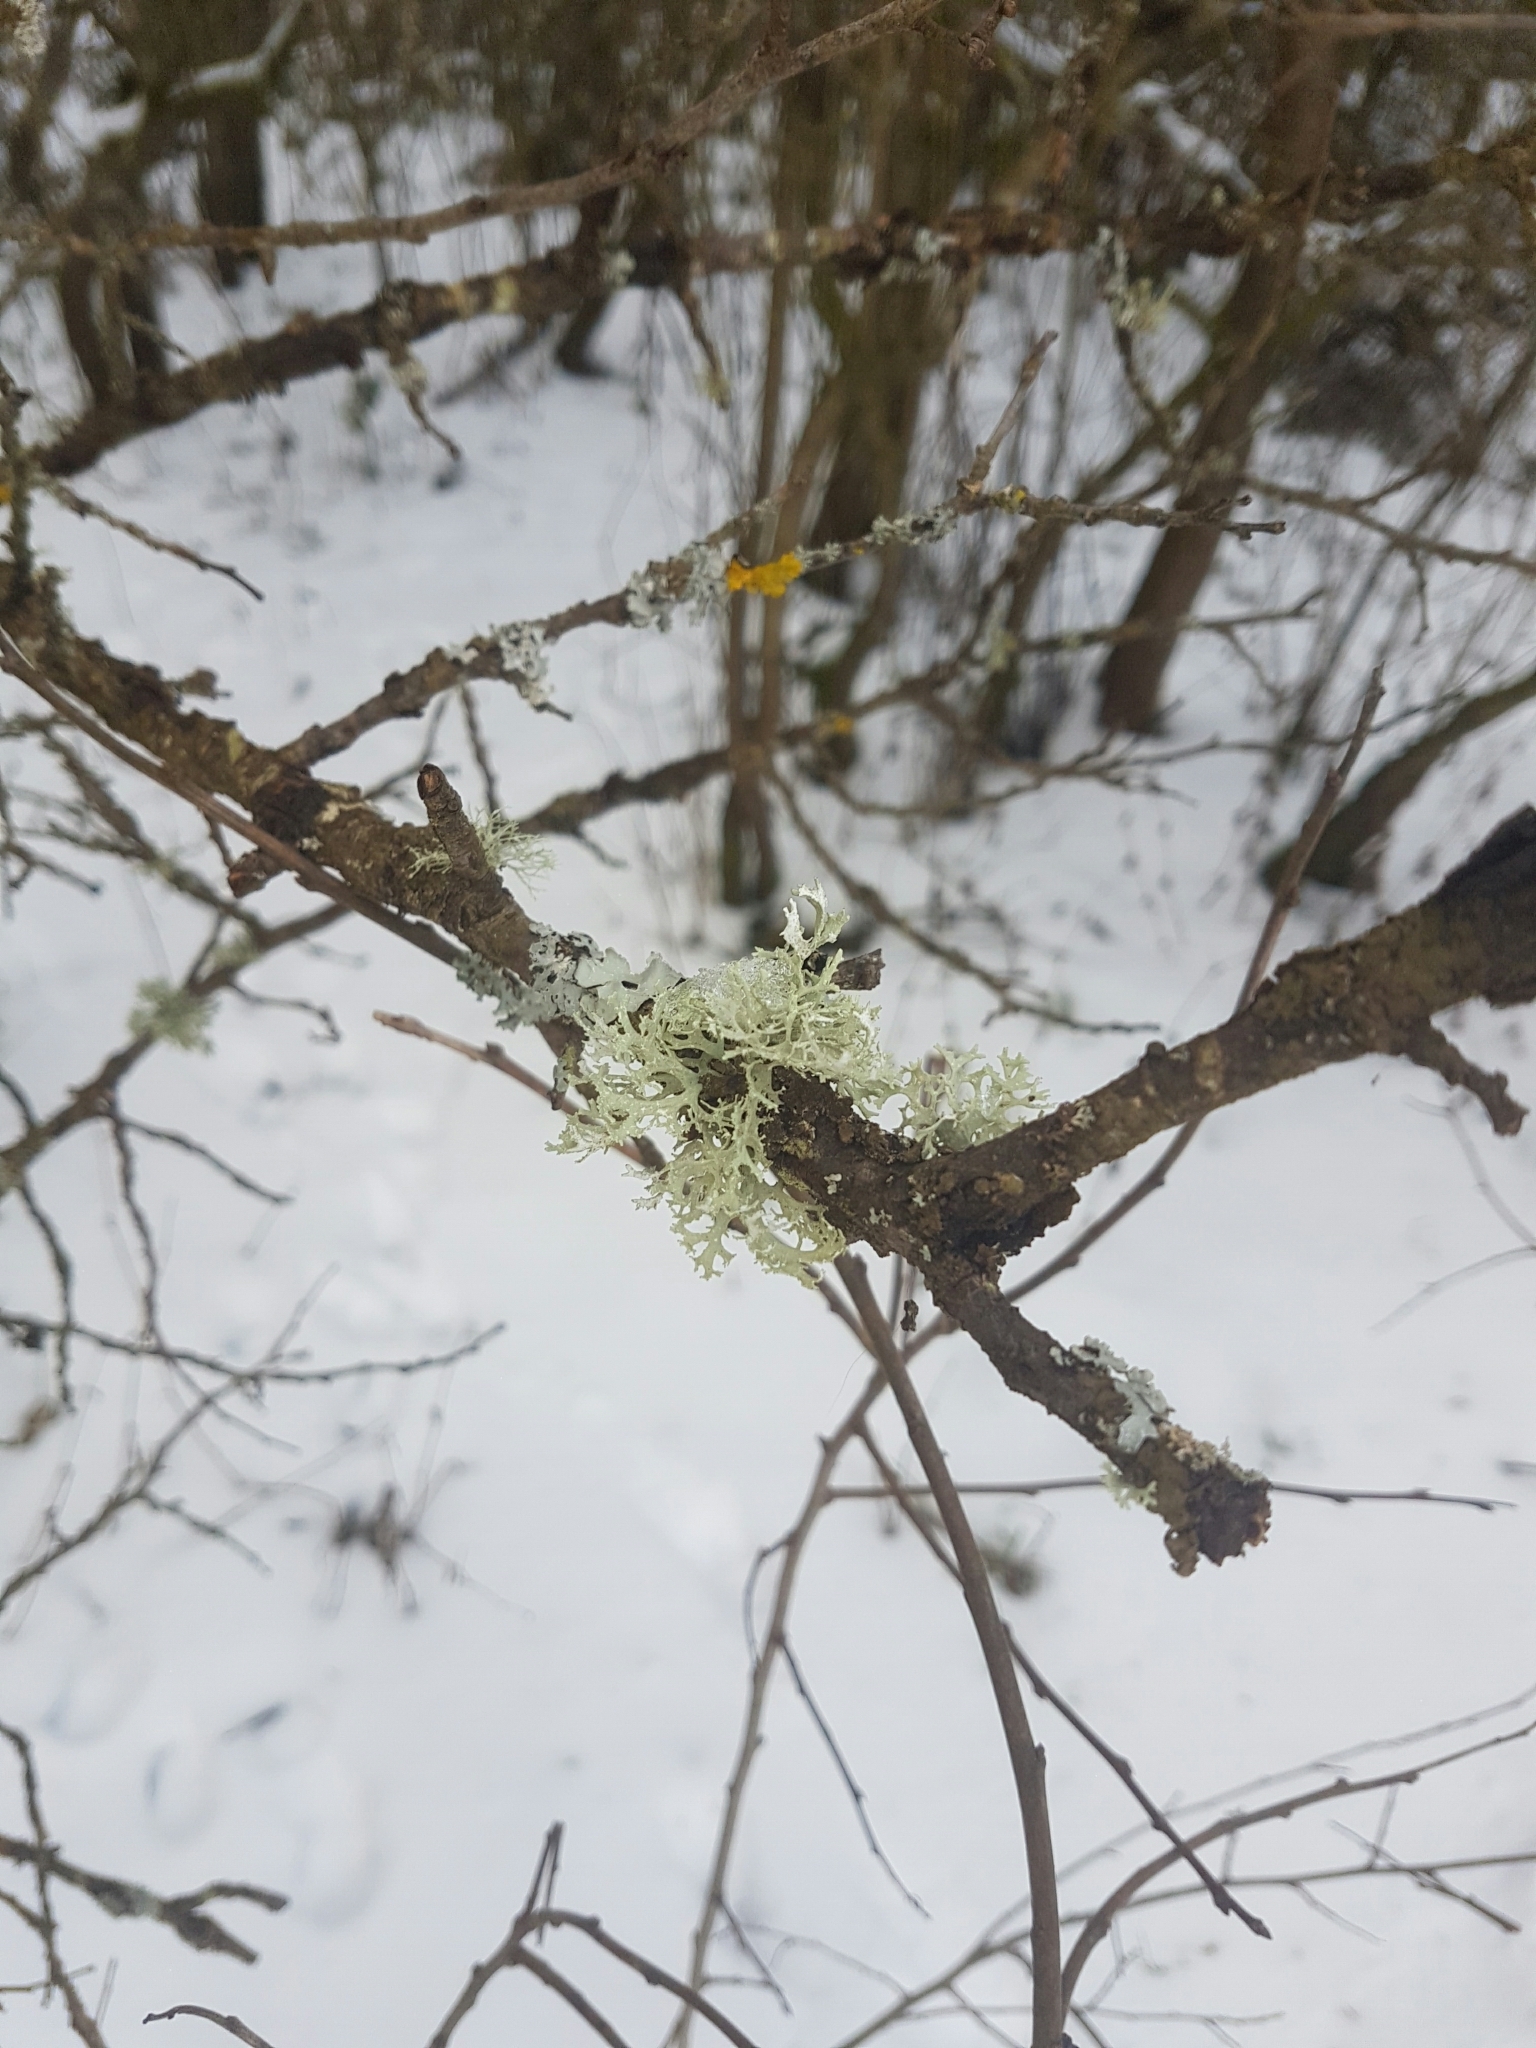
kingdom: Fungi
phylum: Ascomycota
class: Lecanoromycetes
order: Lecanorales
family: Parmeliaceae
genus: Evernia
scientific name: Evernia prunastri
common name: Oak moss
